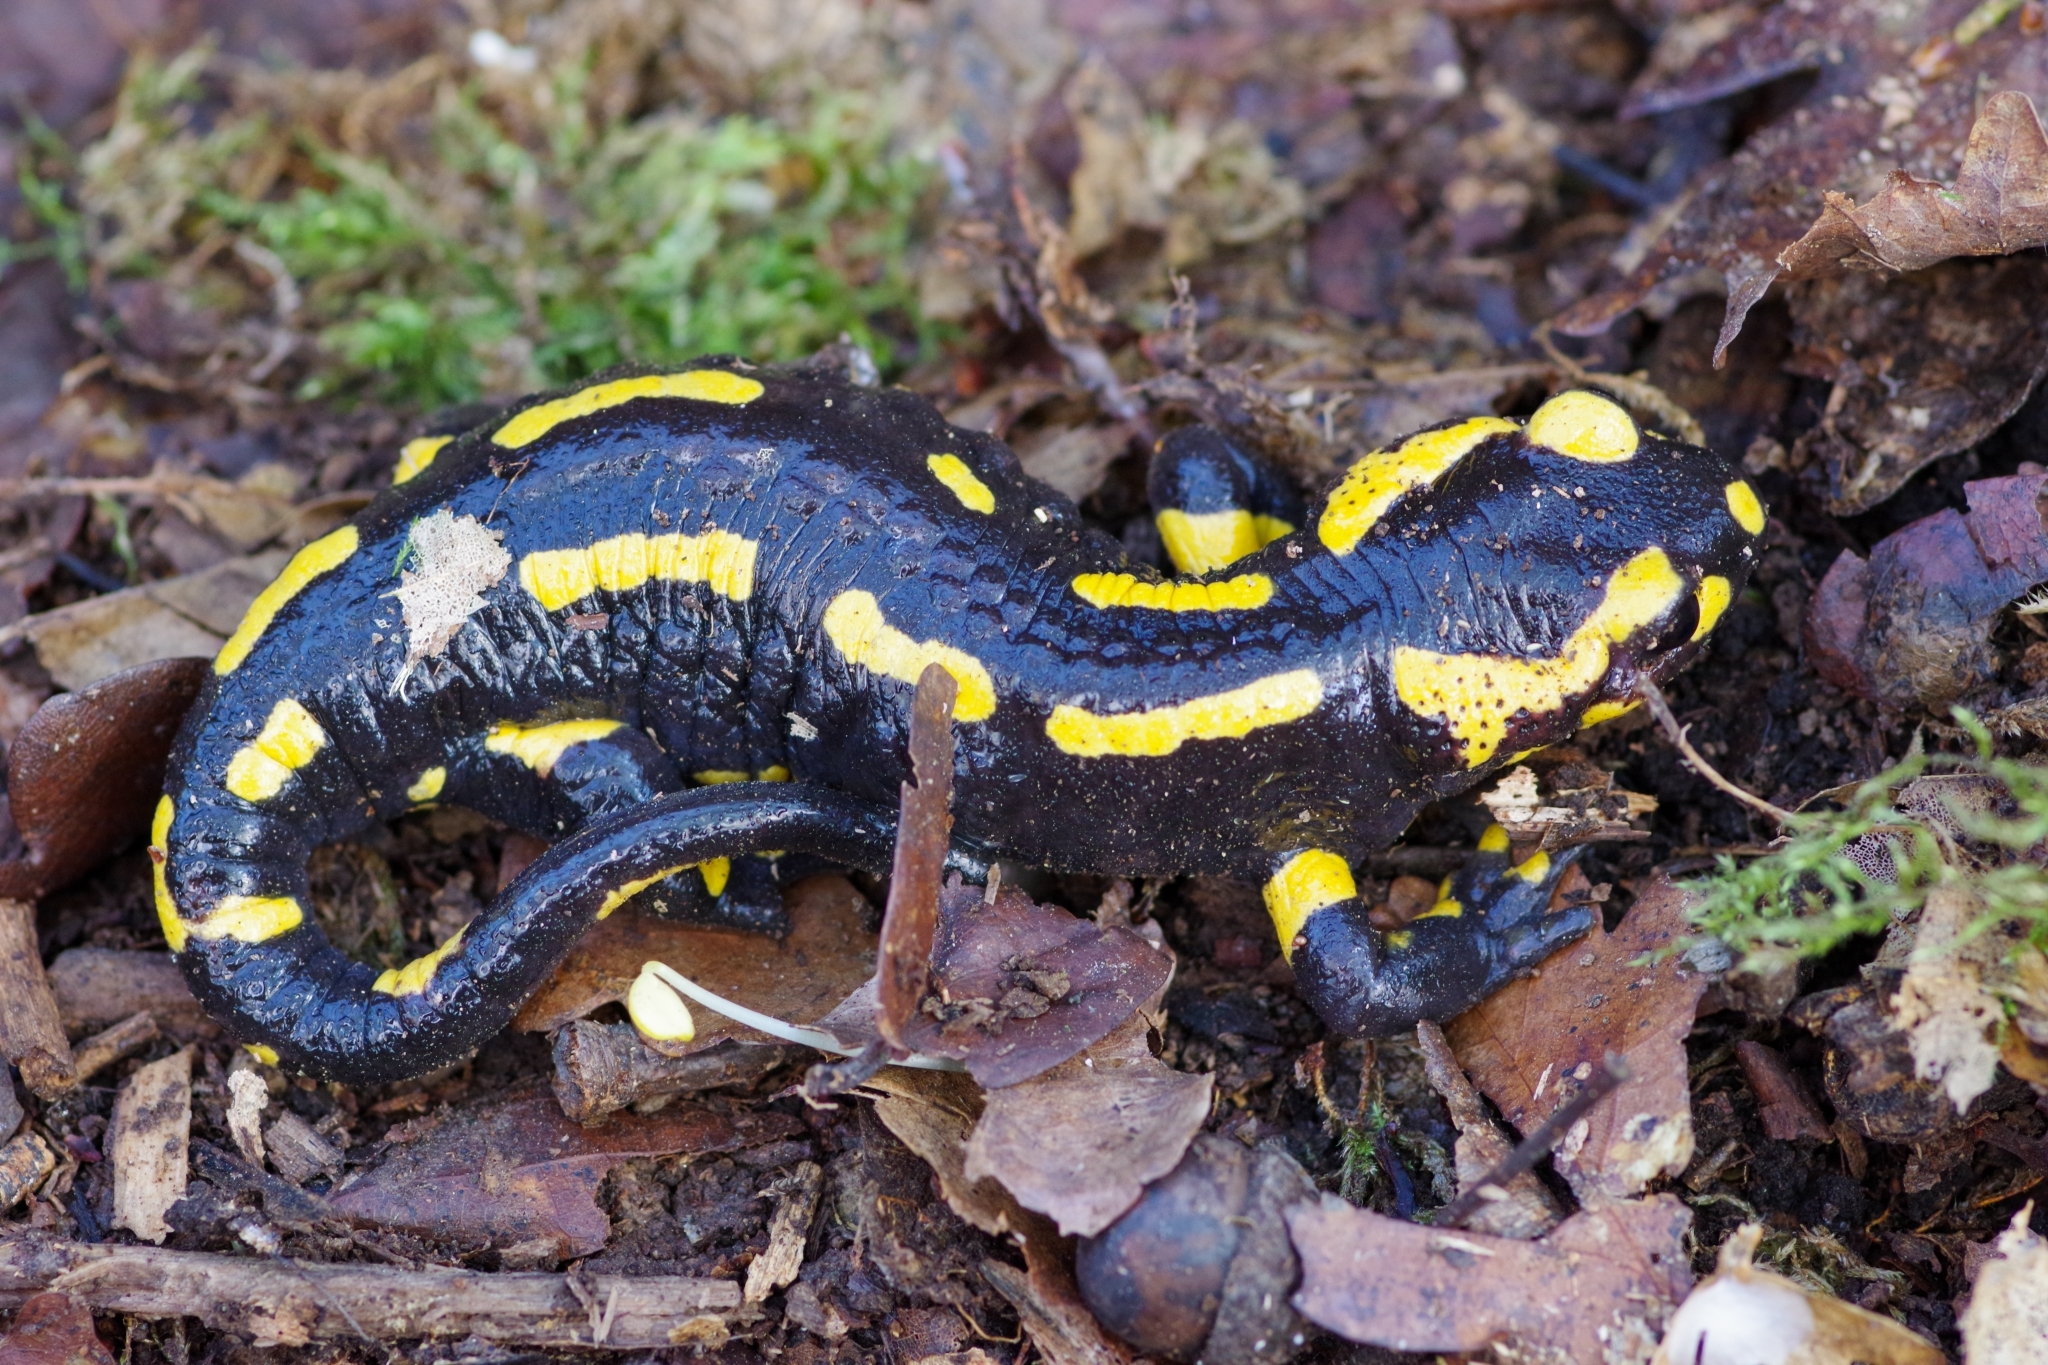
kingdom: Animalia
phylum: Chordata
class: Amphibia
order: Caudata
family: Salamandridae
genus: Salamandra
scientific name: Salamandra salamandra
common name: Fire salamander
